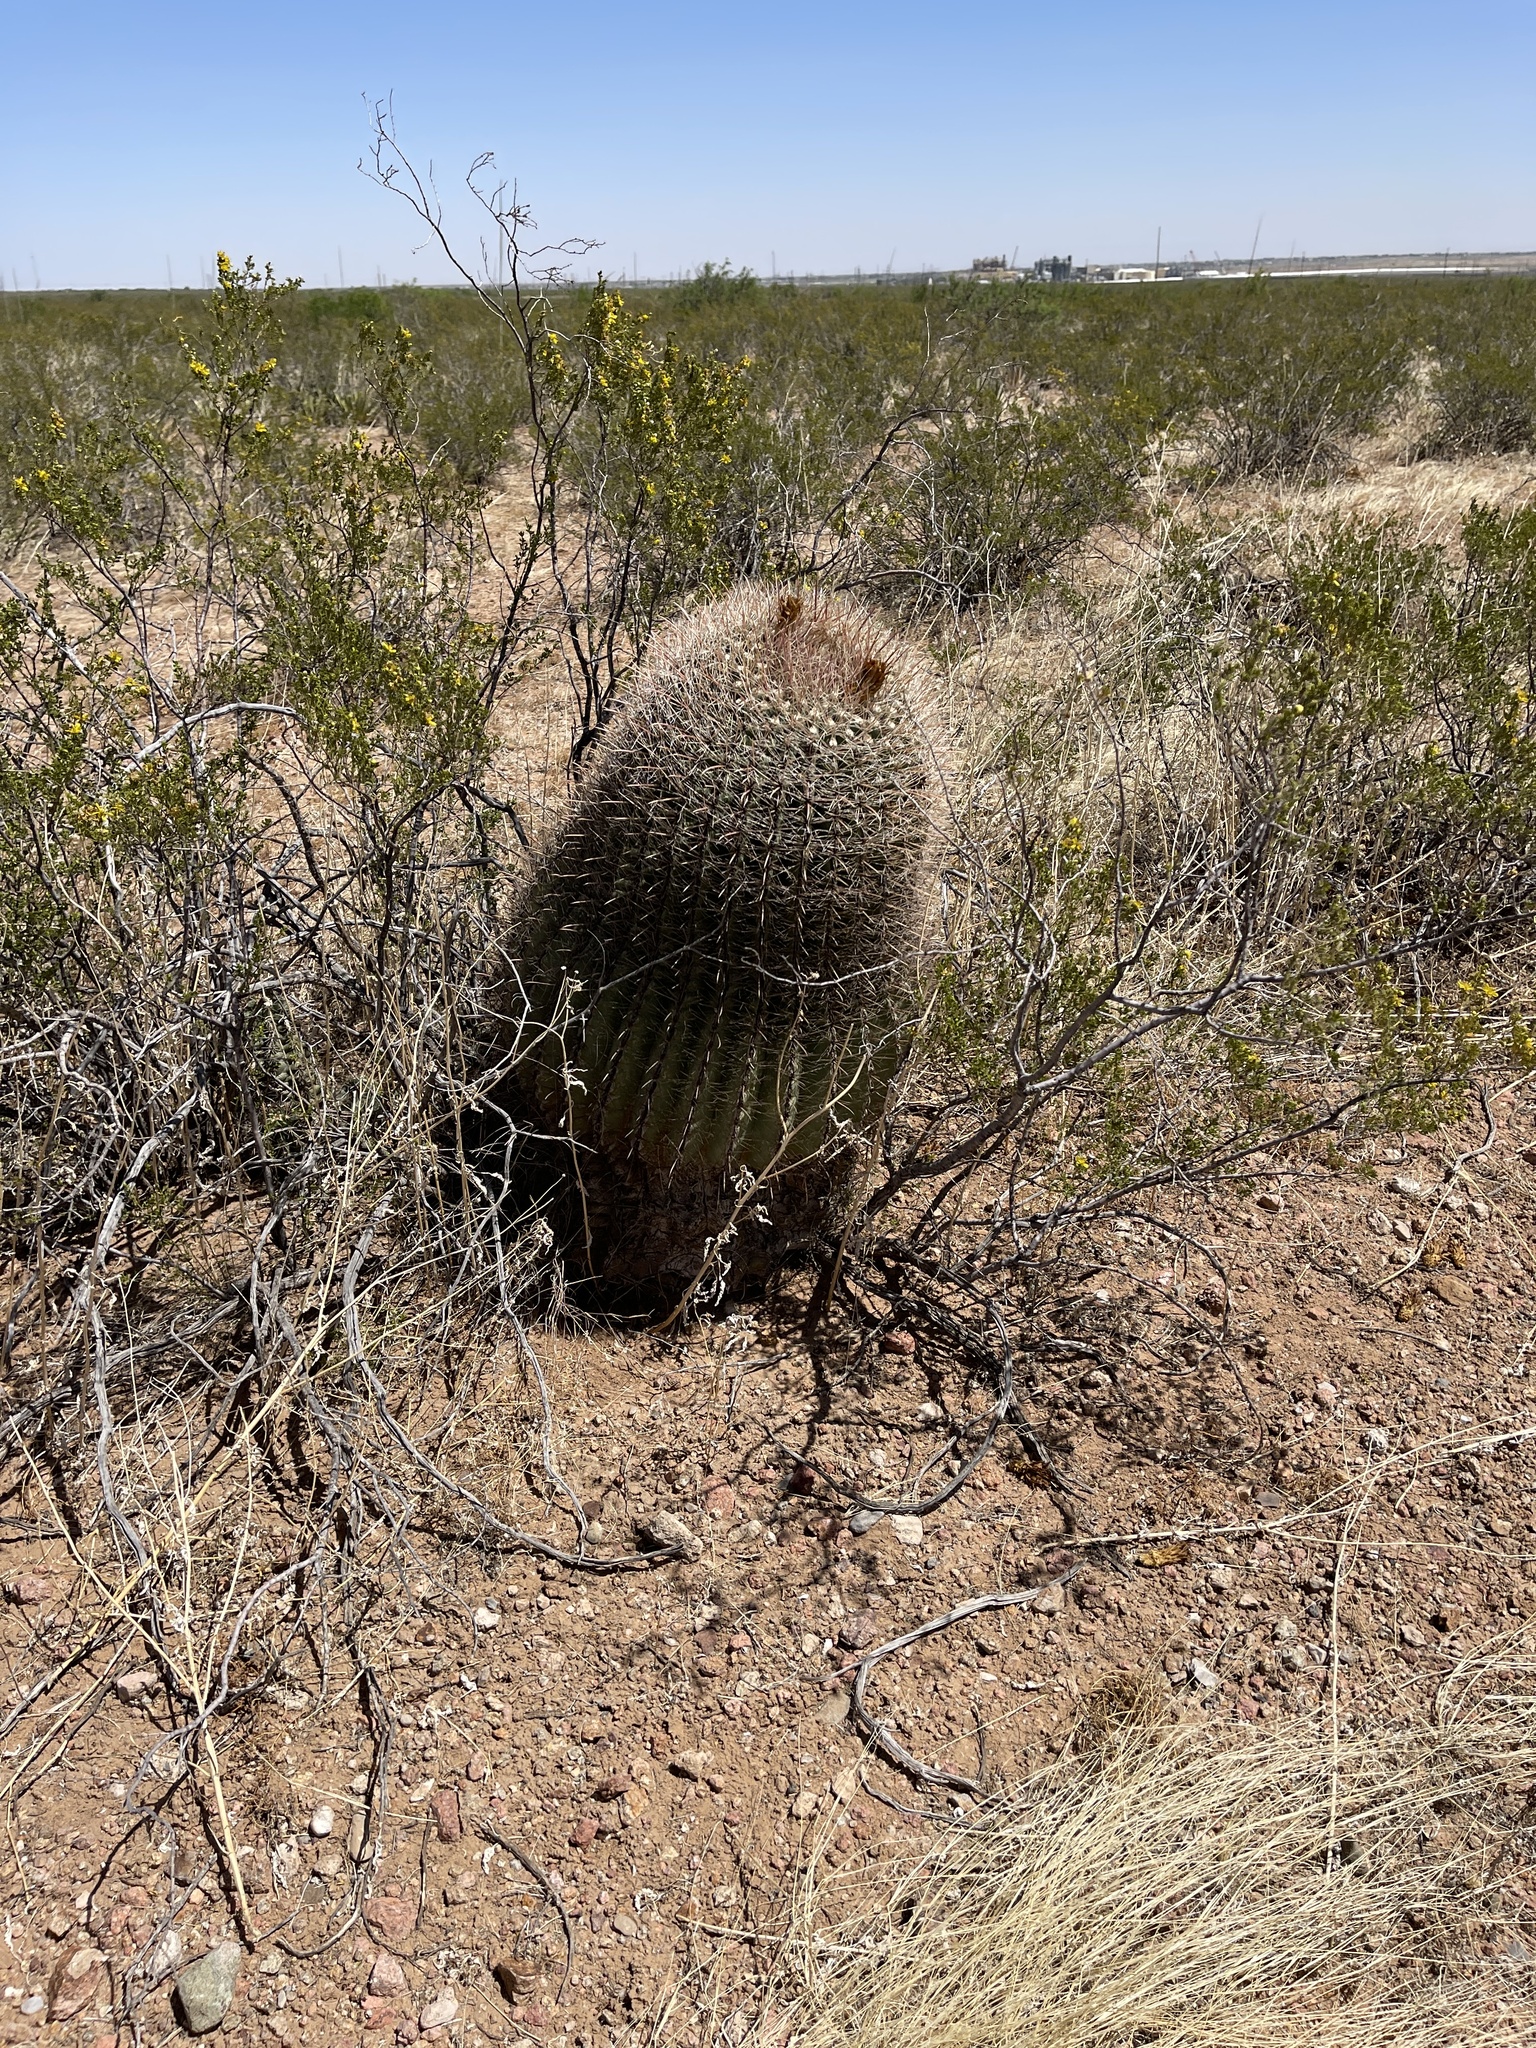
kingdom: Plantae
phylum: Tracheophyta
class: Magnoliopsida
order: Caryophyllales
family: Cactaceae
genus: Ferocactus
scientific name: Ferocactus wislizeni
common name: Candy barrel cactus
